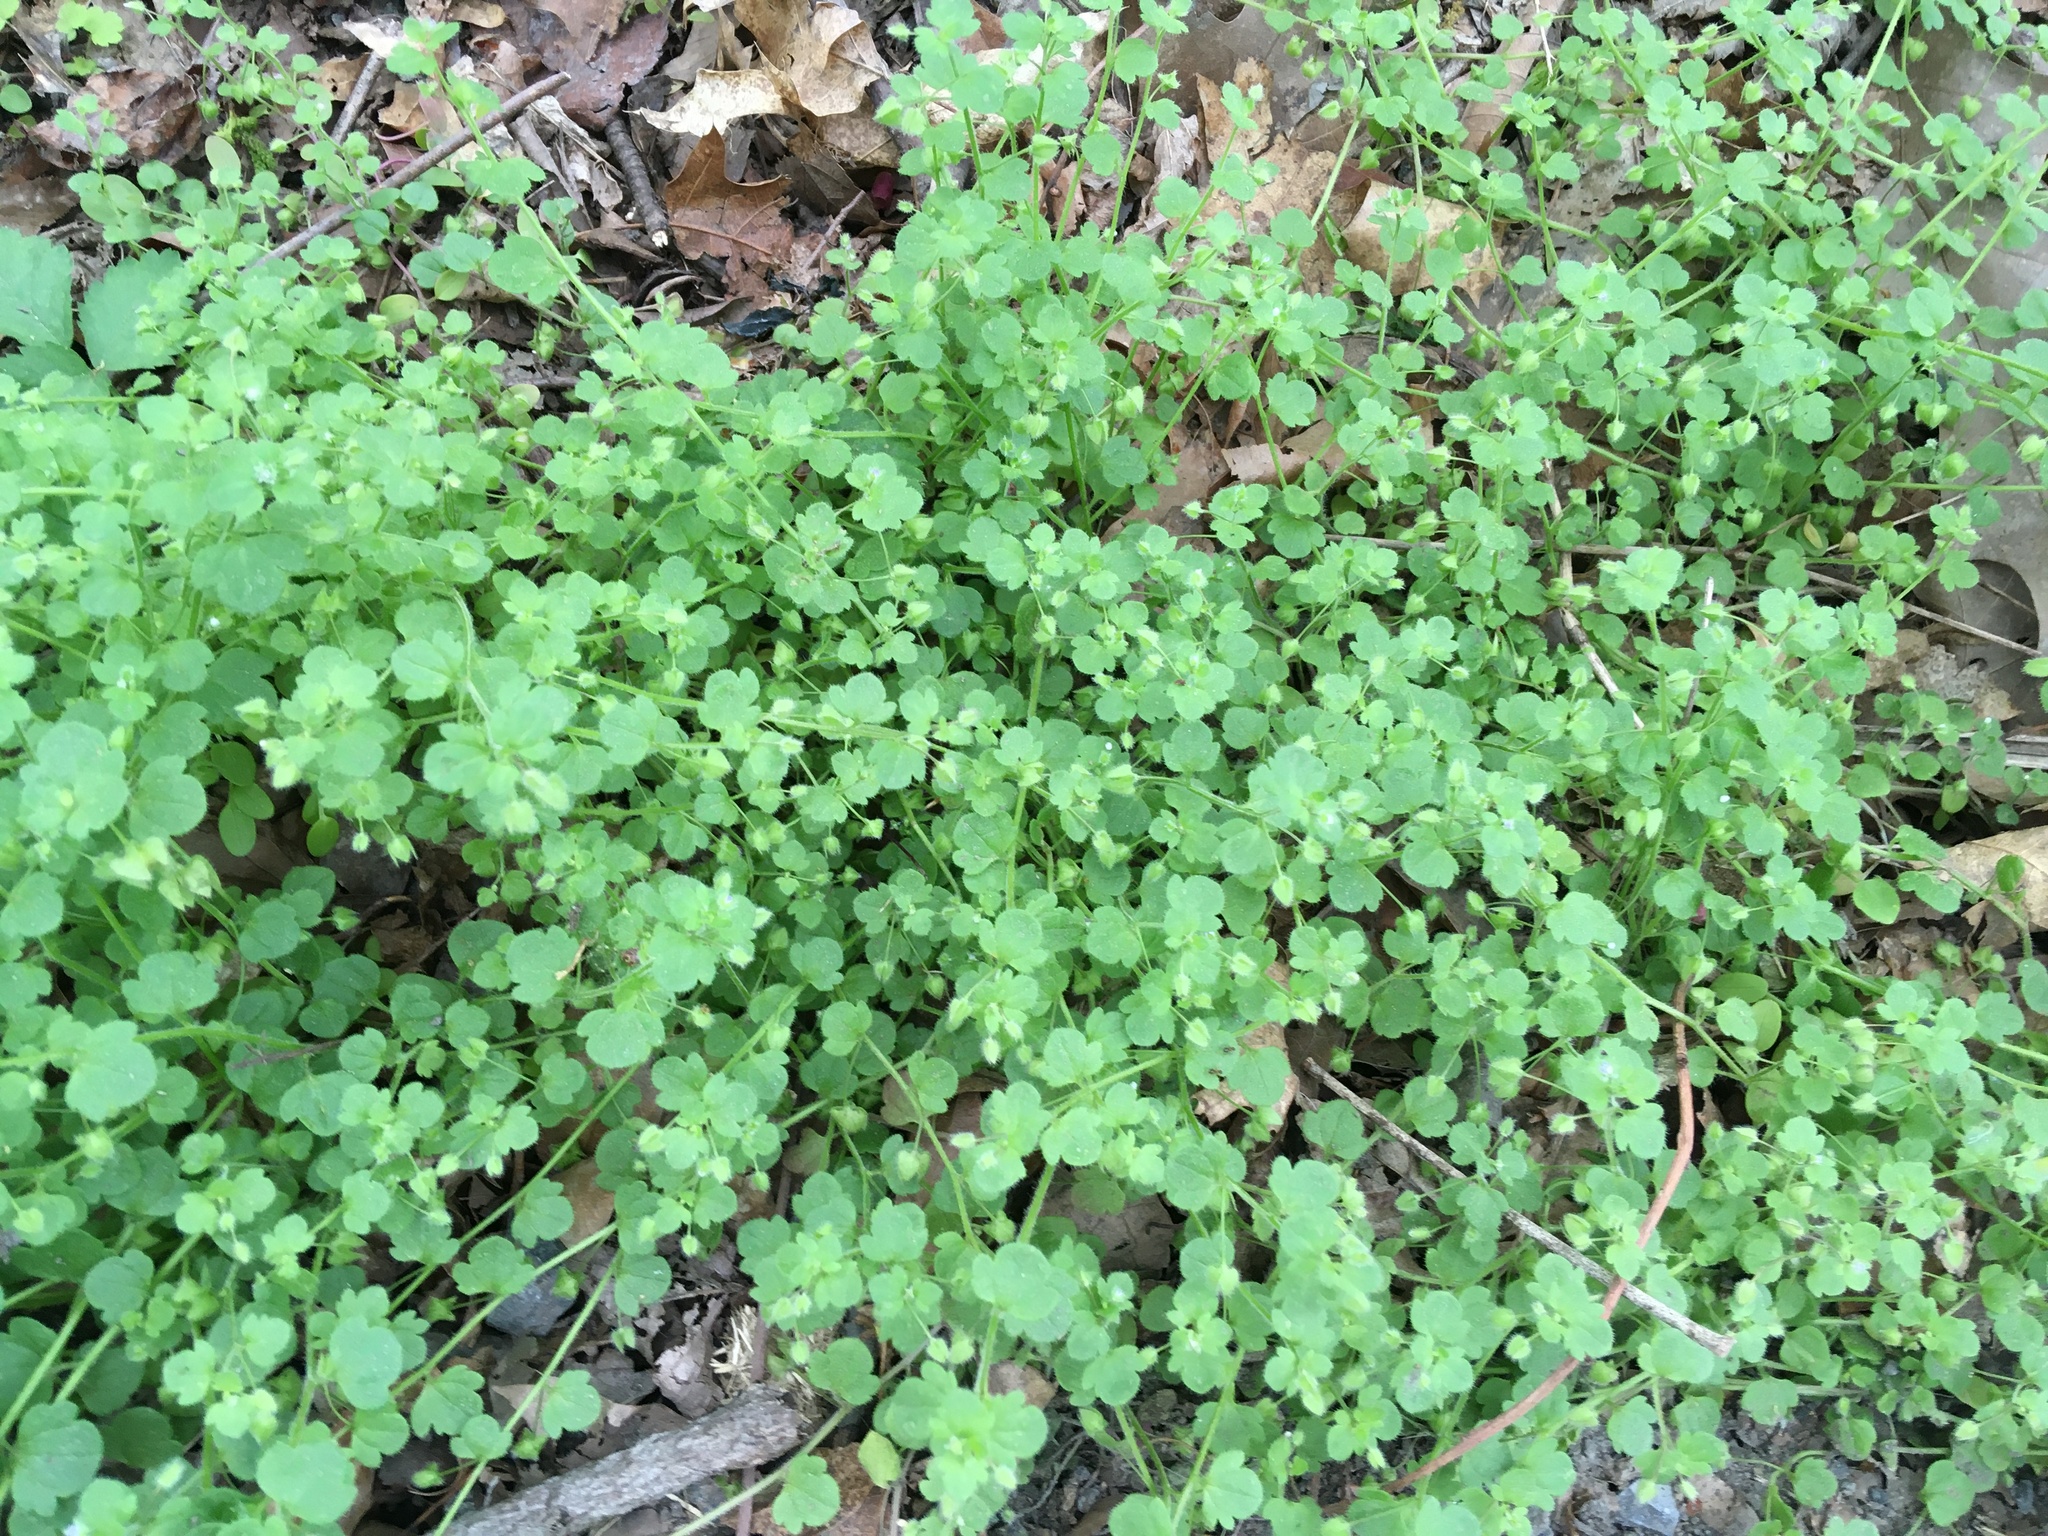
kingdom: Plantae
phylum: Tracheophyta
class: Magnoliopsida
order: Lamiales
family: Plantaginaceae
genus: Veronica
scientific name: Veronica hederifolia
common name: Ivy-leaved speedwell
